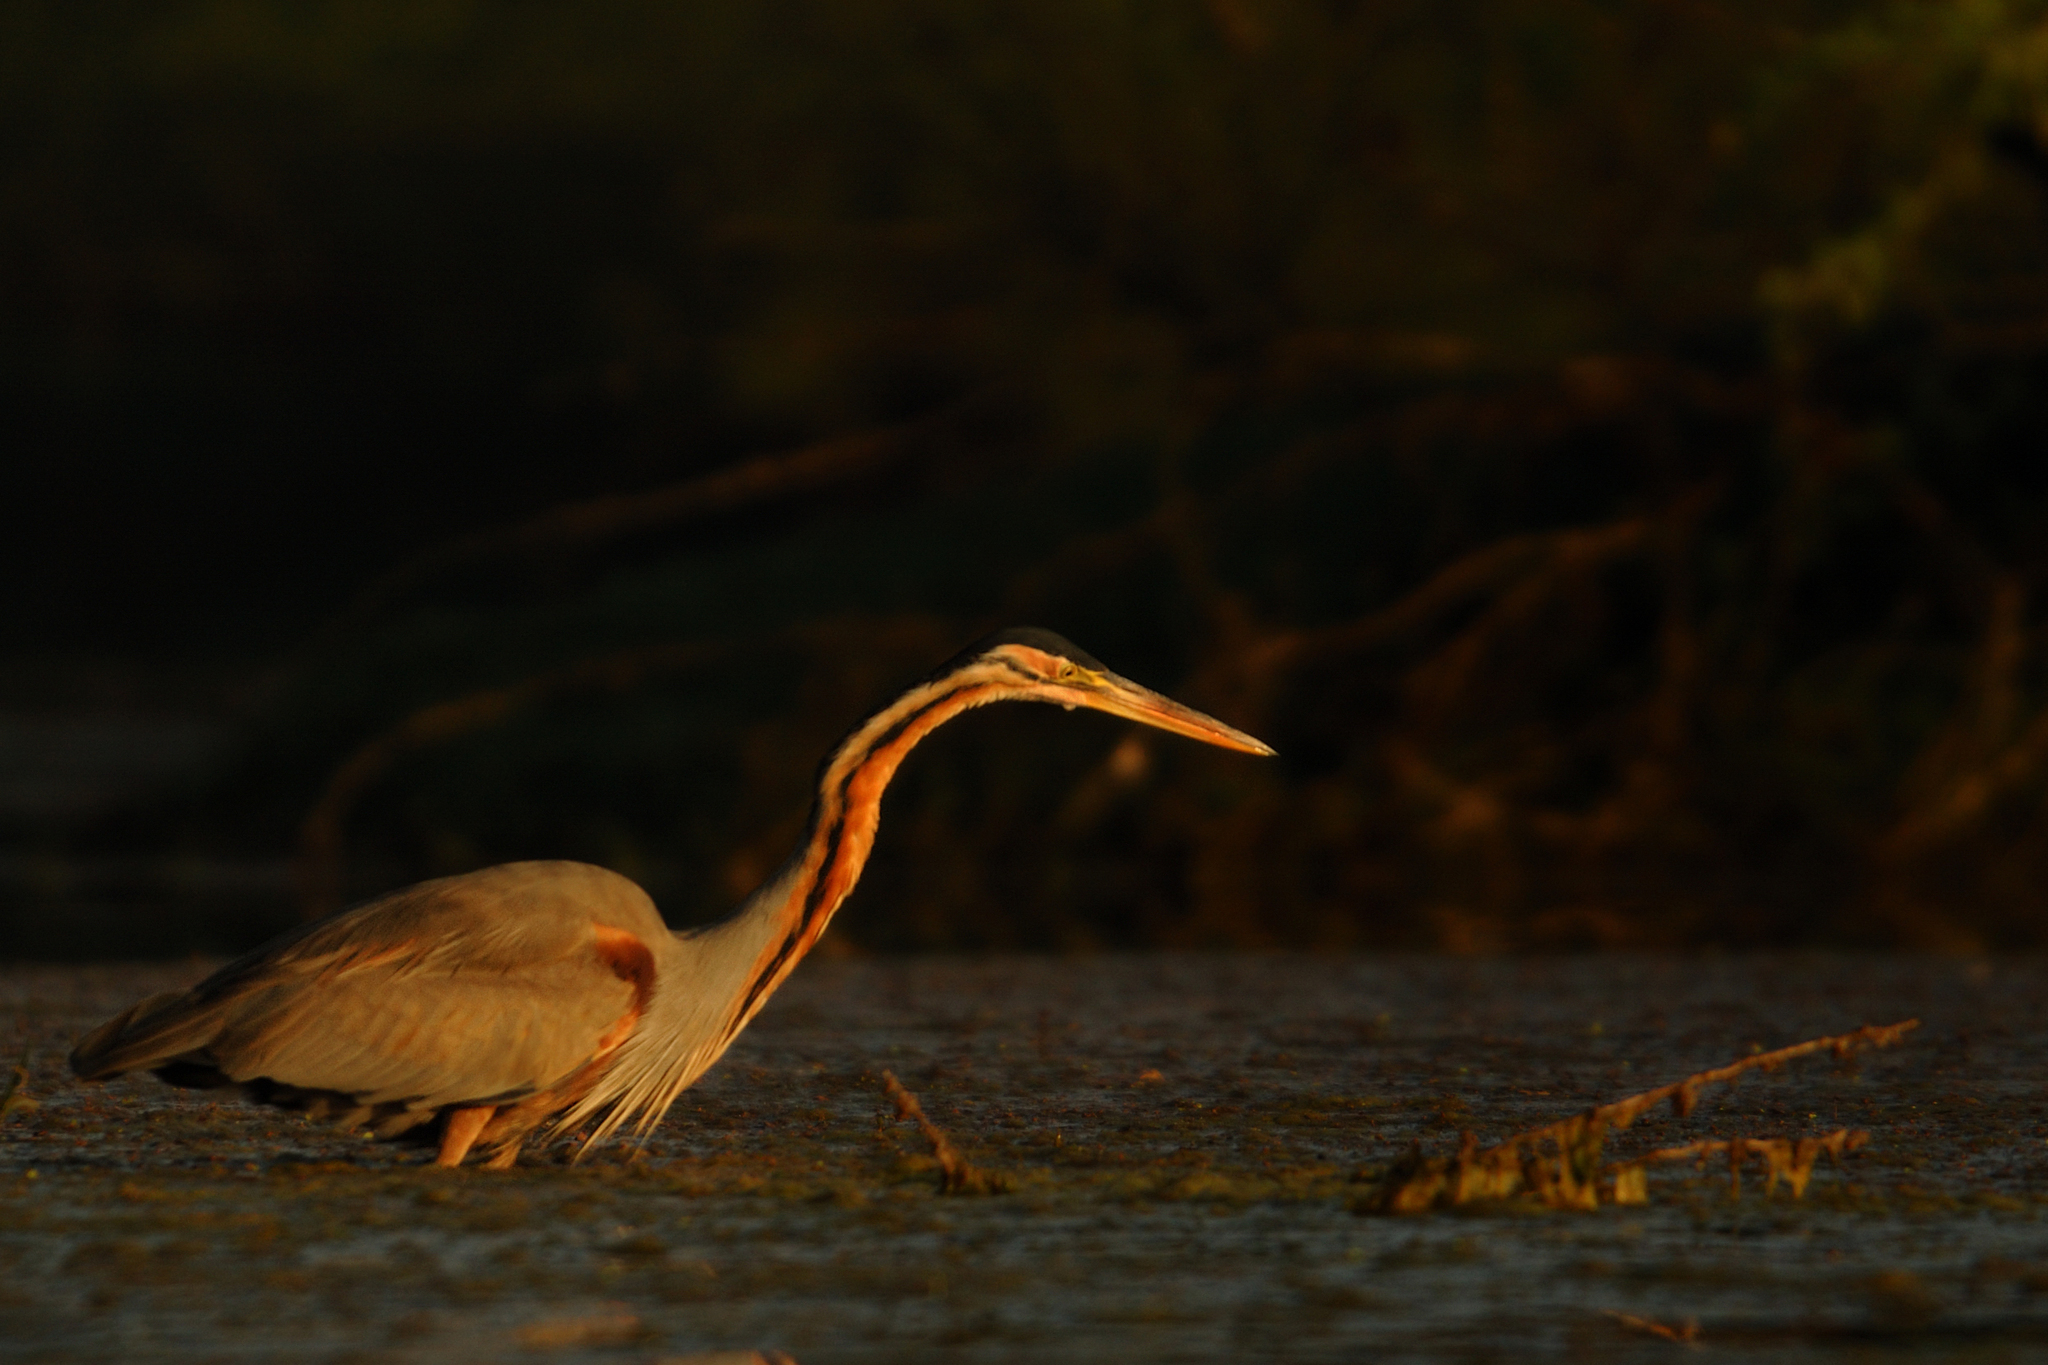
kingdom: Animalia
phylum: Chordata
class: Aves
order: Pelecaniformes
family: Ardeidae
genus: Ardea
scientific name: Ardea purpurea
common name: Purple heron
